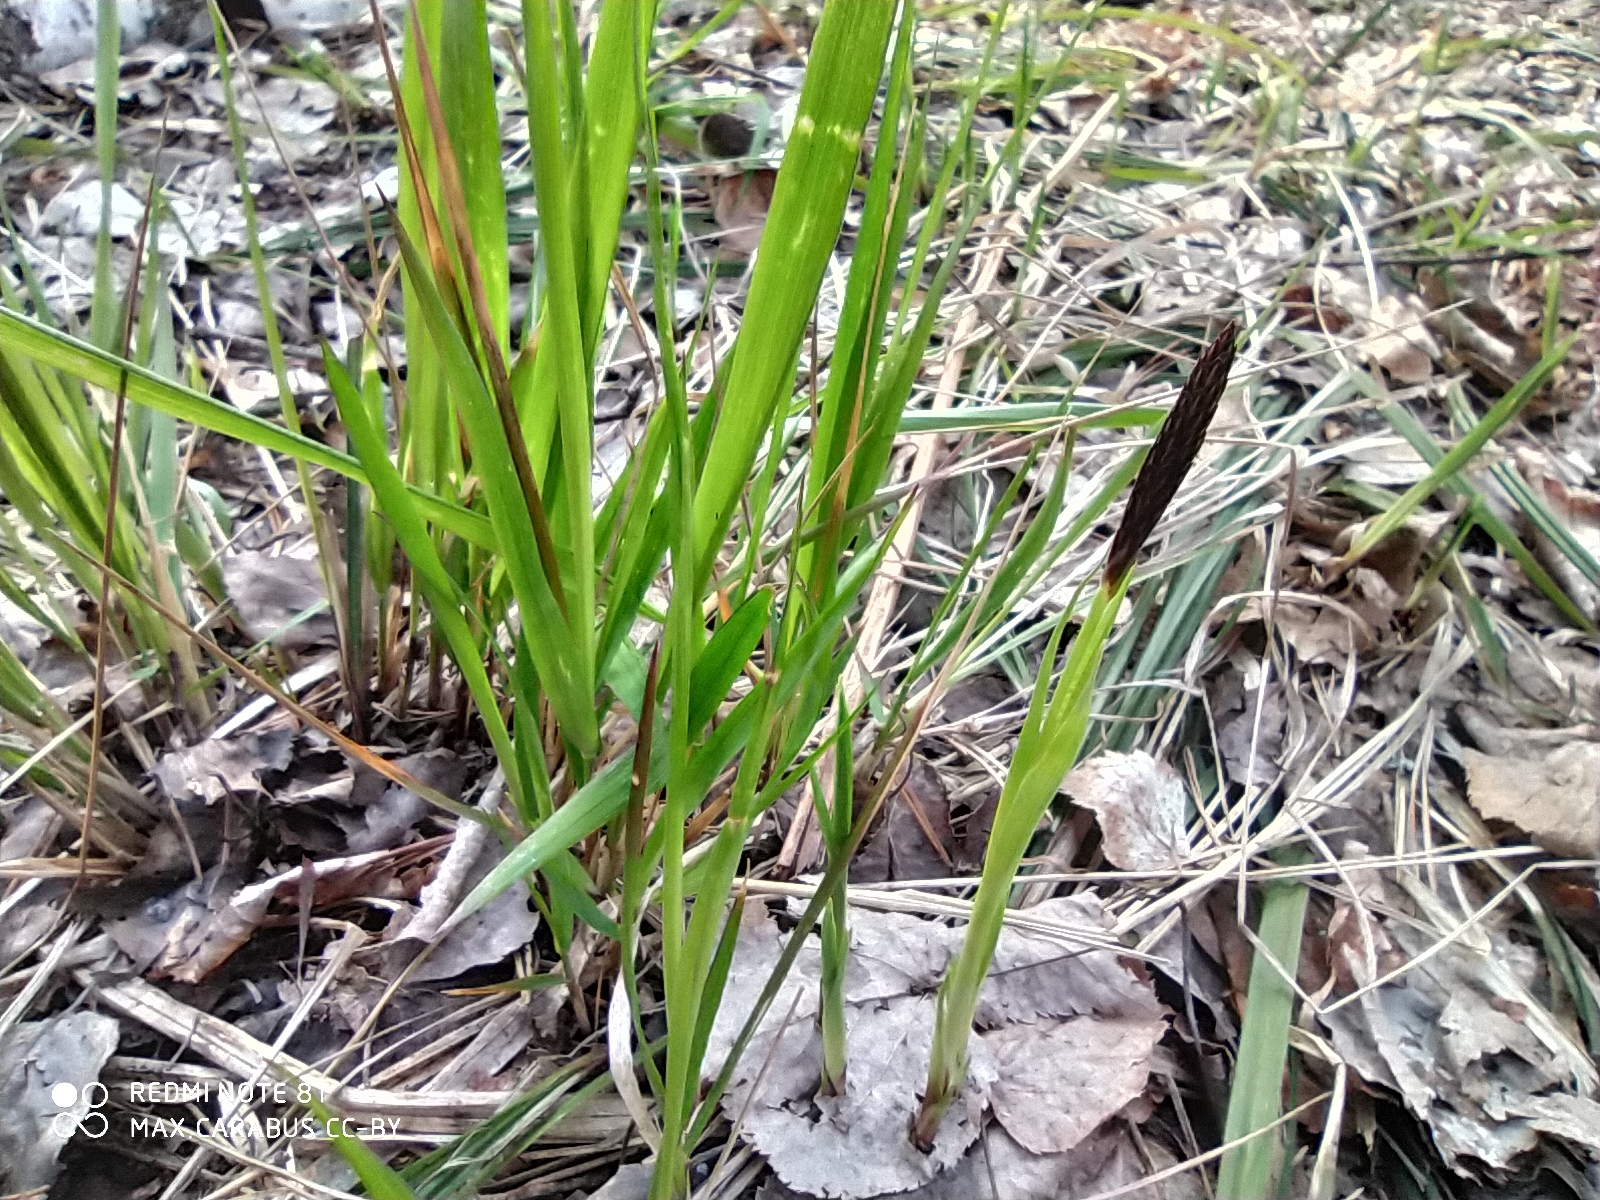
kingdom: Plantae
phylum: Tracheophyta
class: Liliopsida
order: Poales
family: Cyperaceae
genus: Carex
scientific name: Carex pilosa
